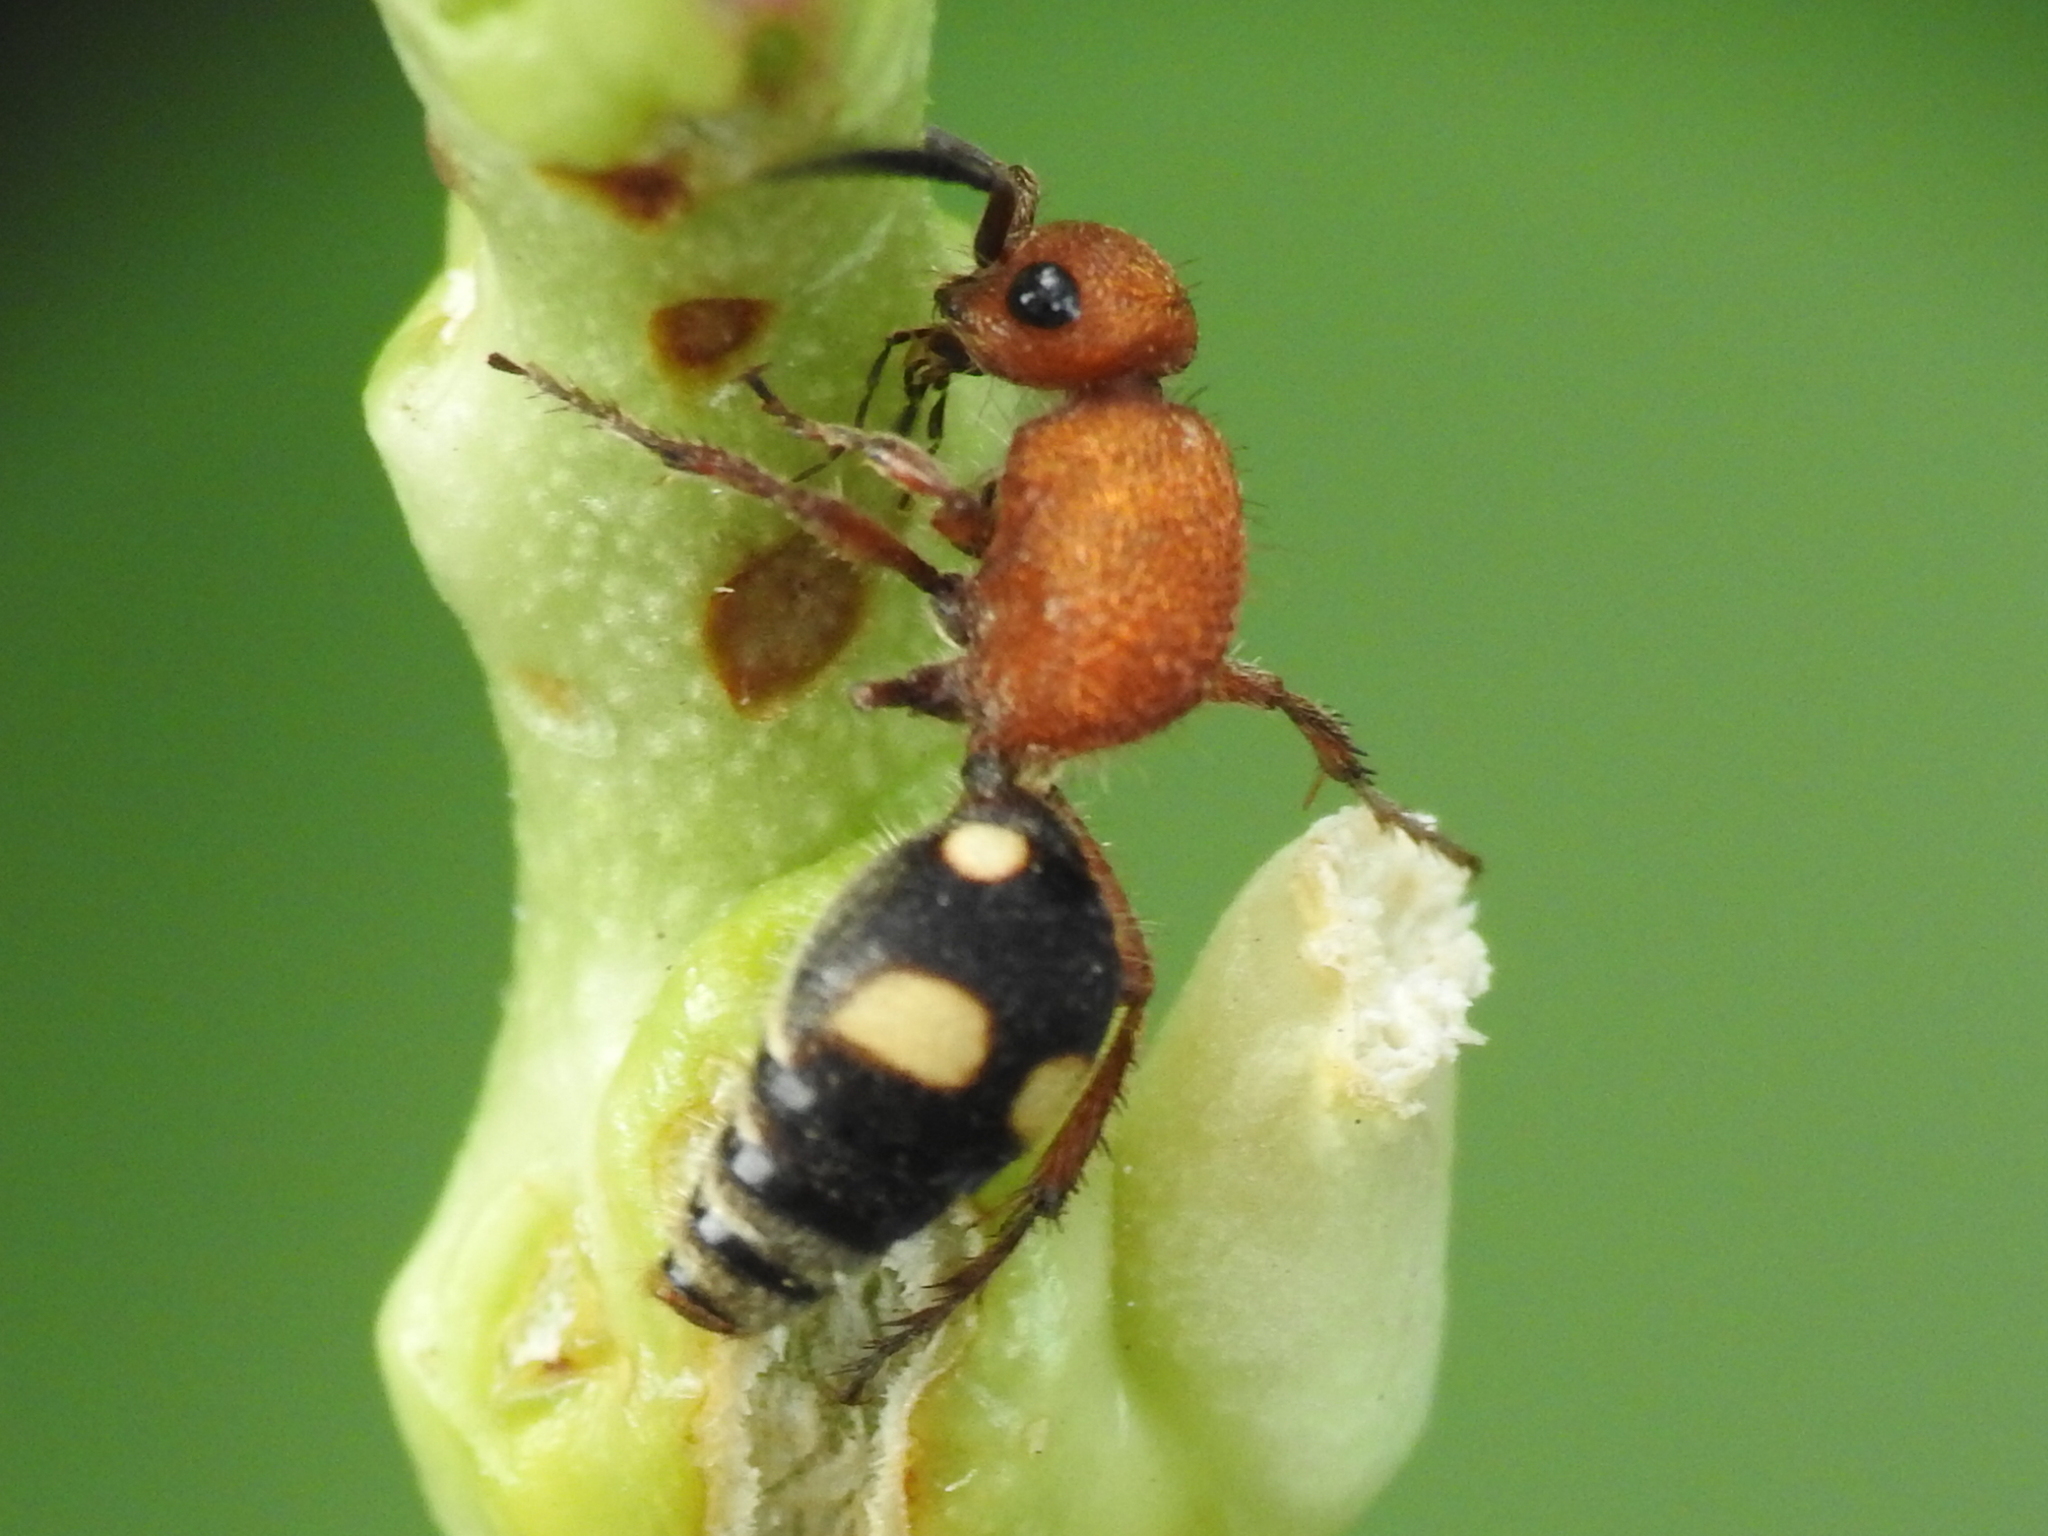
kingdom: Animalia
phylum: Arthropoda
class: Insecta
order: Hymenoptera
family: Mutillidae
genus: Dasymutilla
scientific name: Dasymutilla
